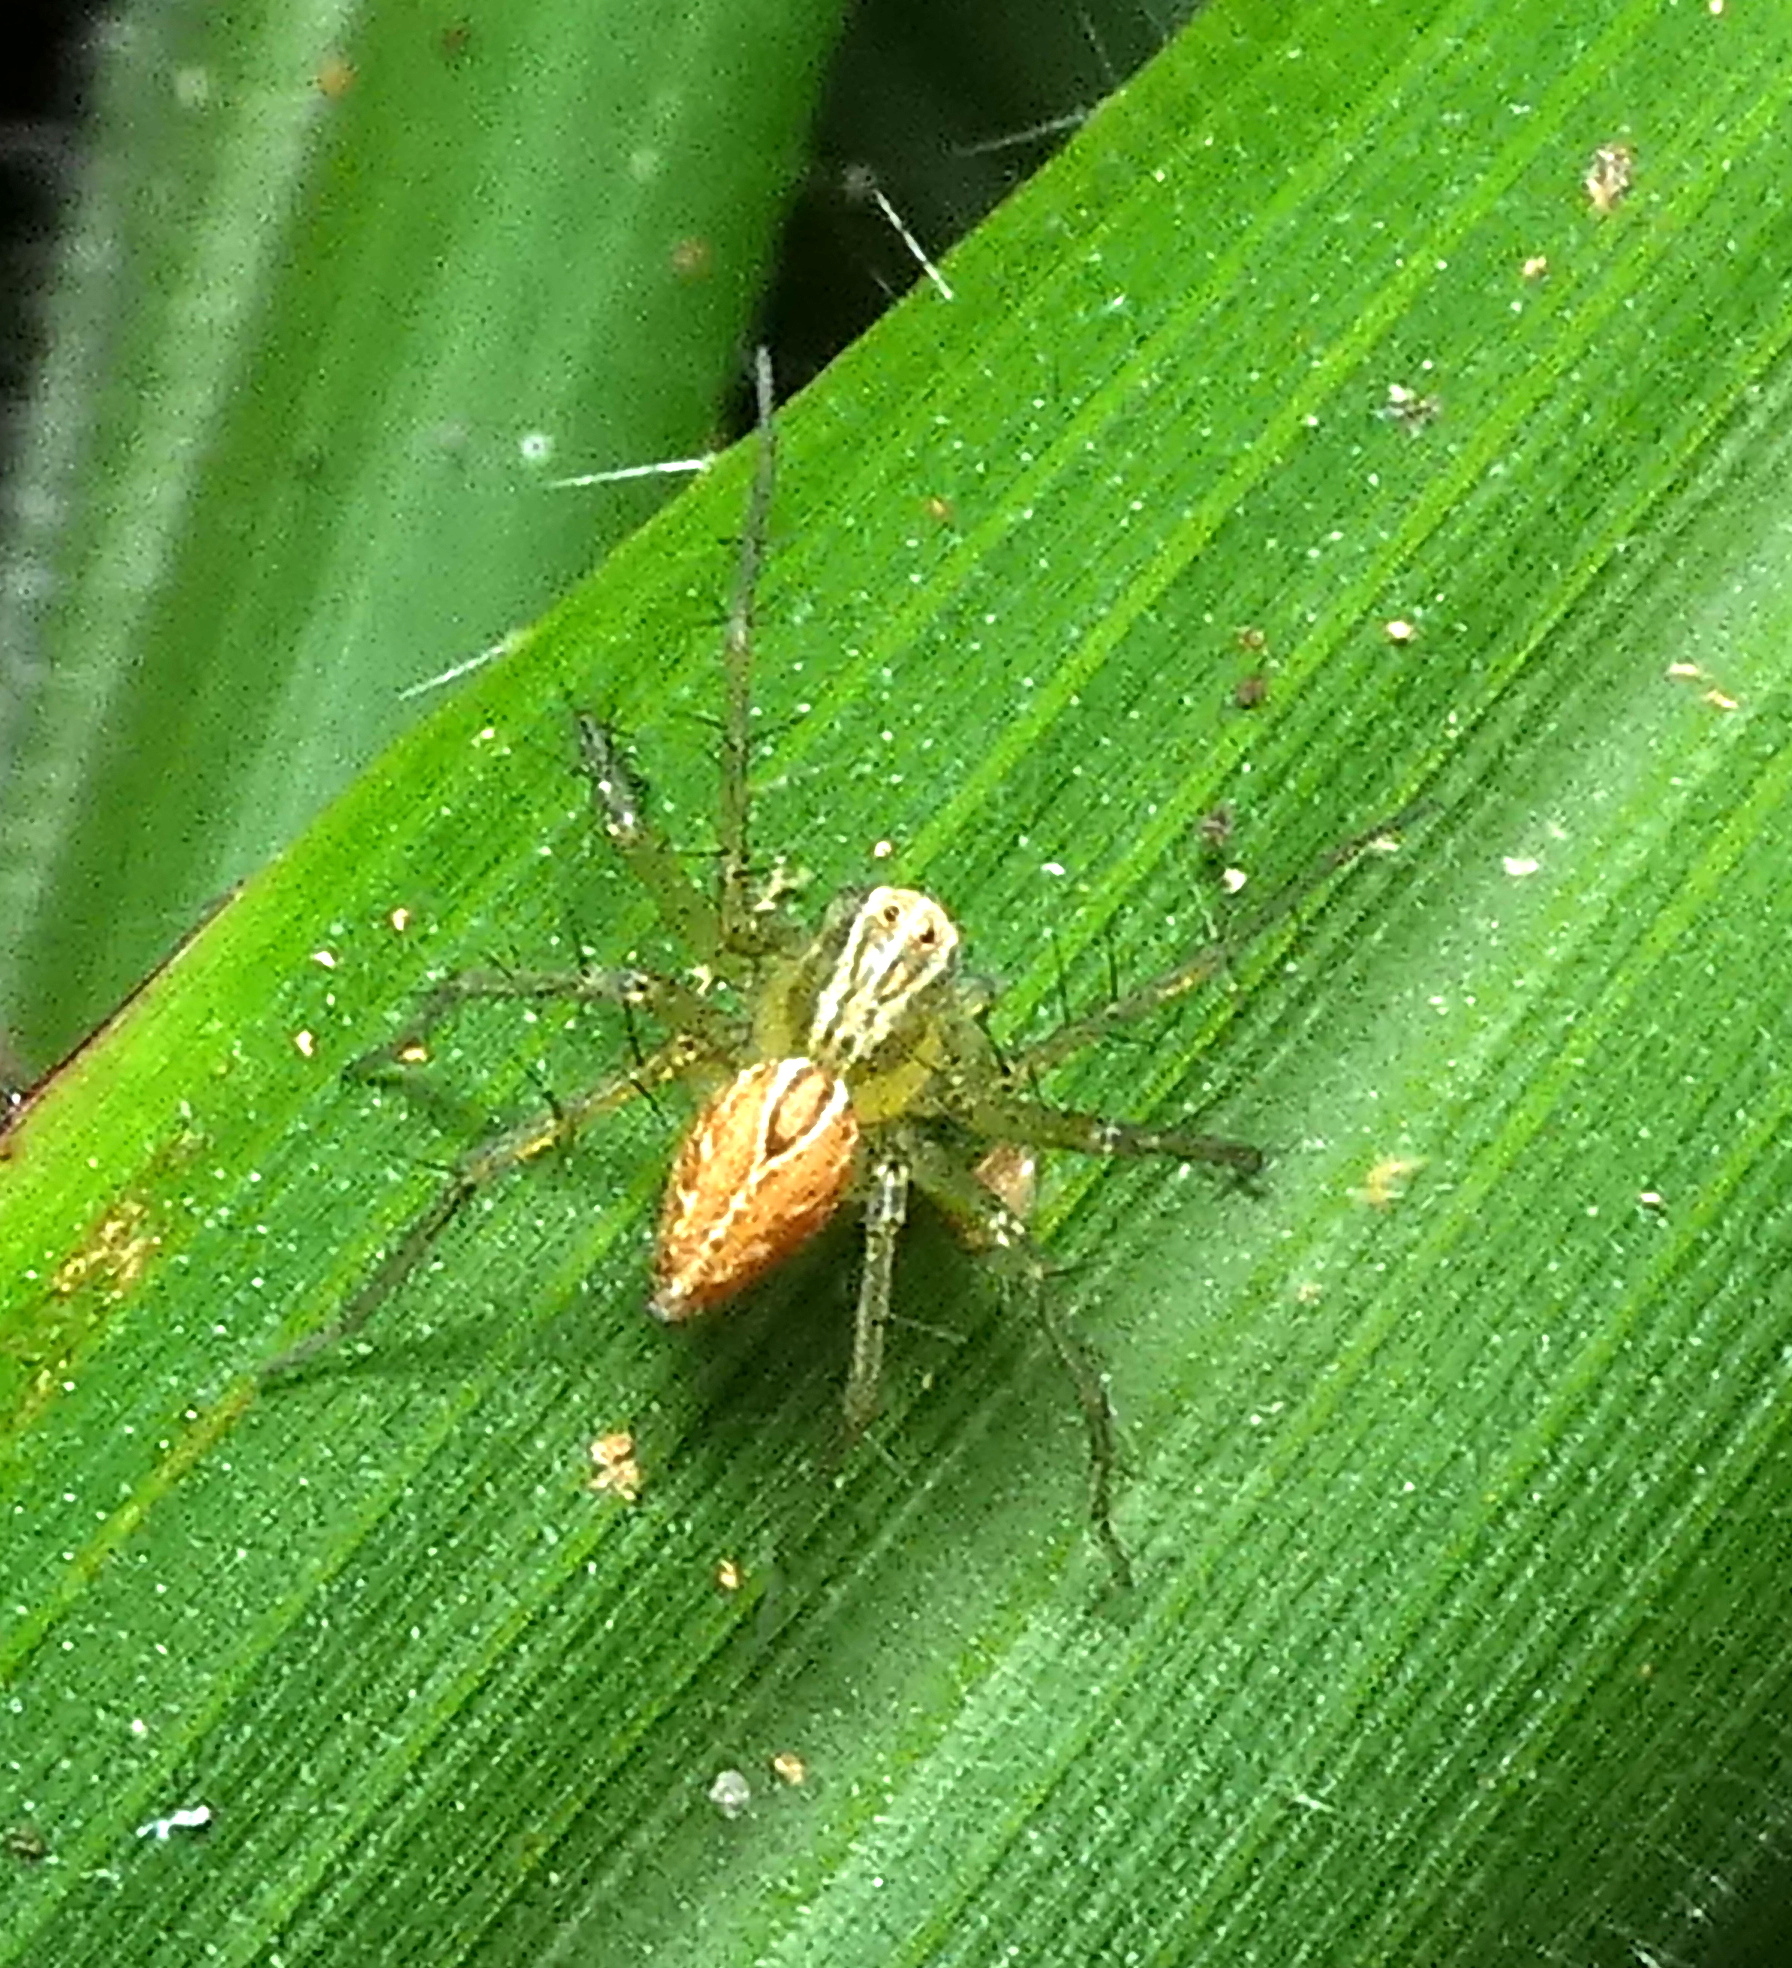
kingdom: Animalia
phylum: Arthropoda
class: Arachnida
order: Araneae
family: Oxyopidae
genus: Oxyopes
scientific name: Oxyopes salticus
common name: Lynx spiders
